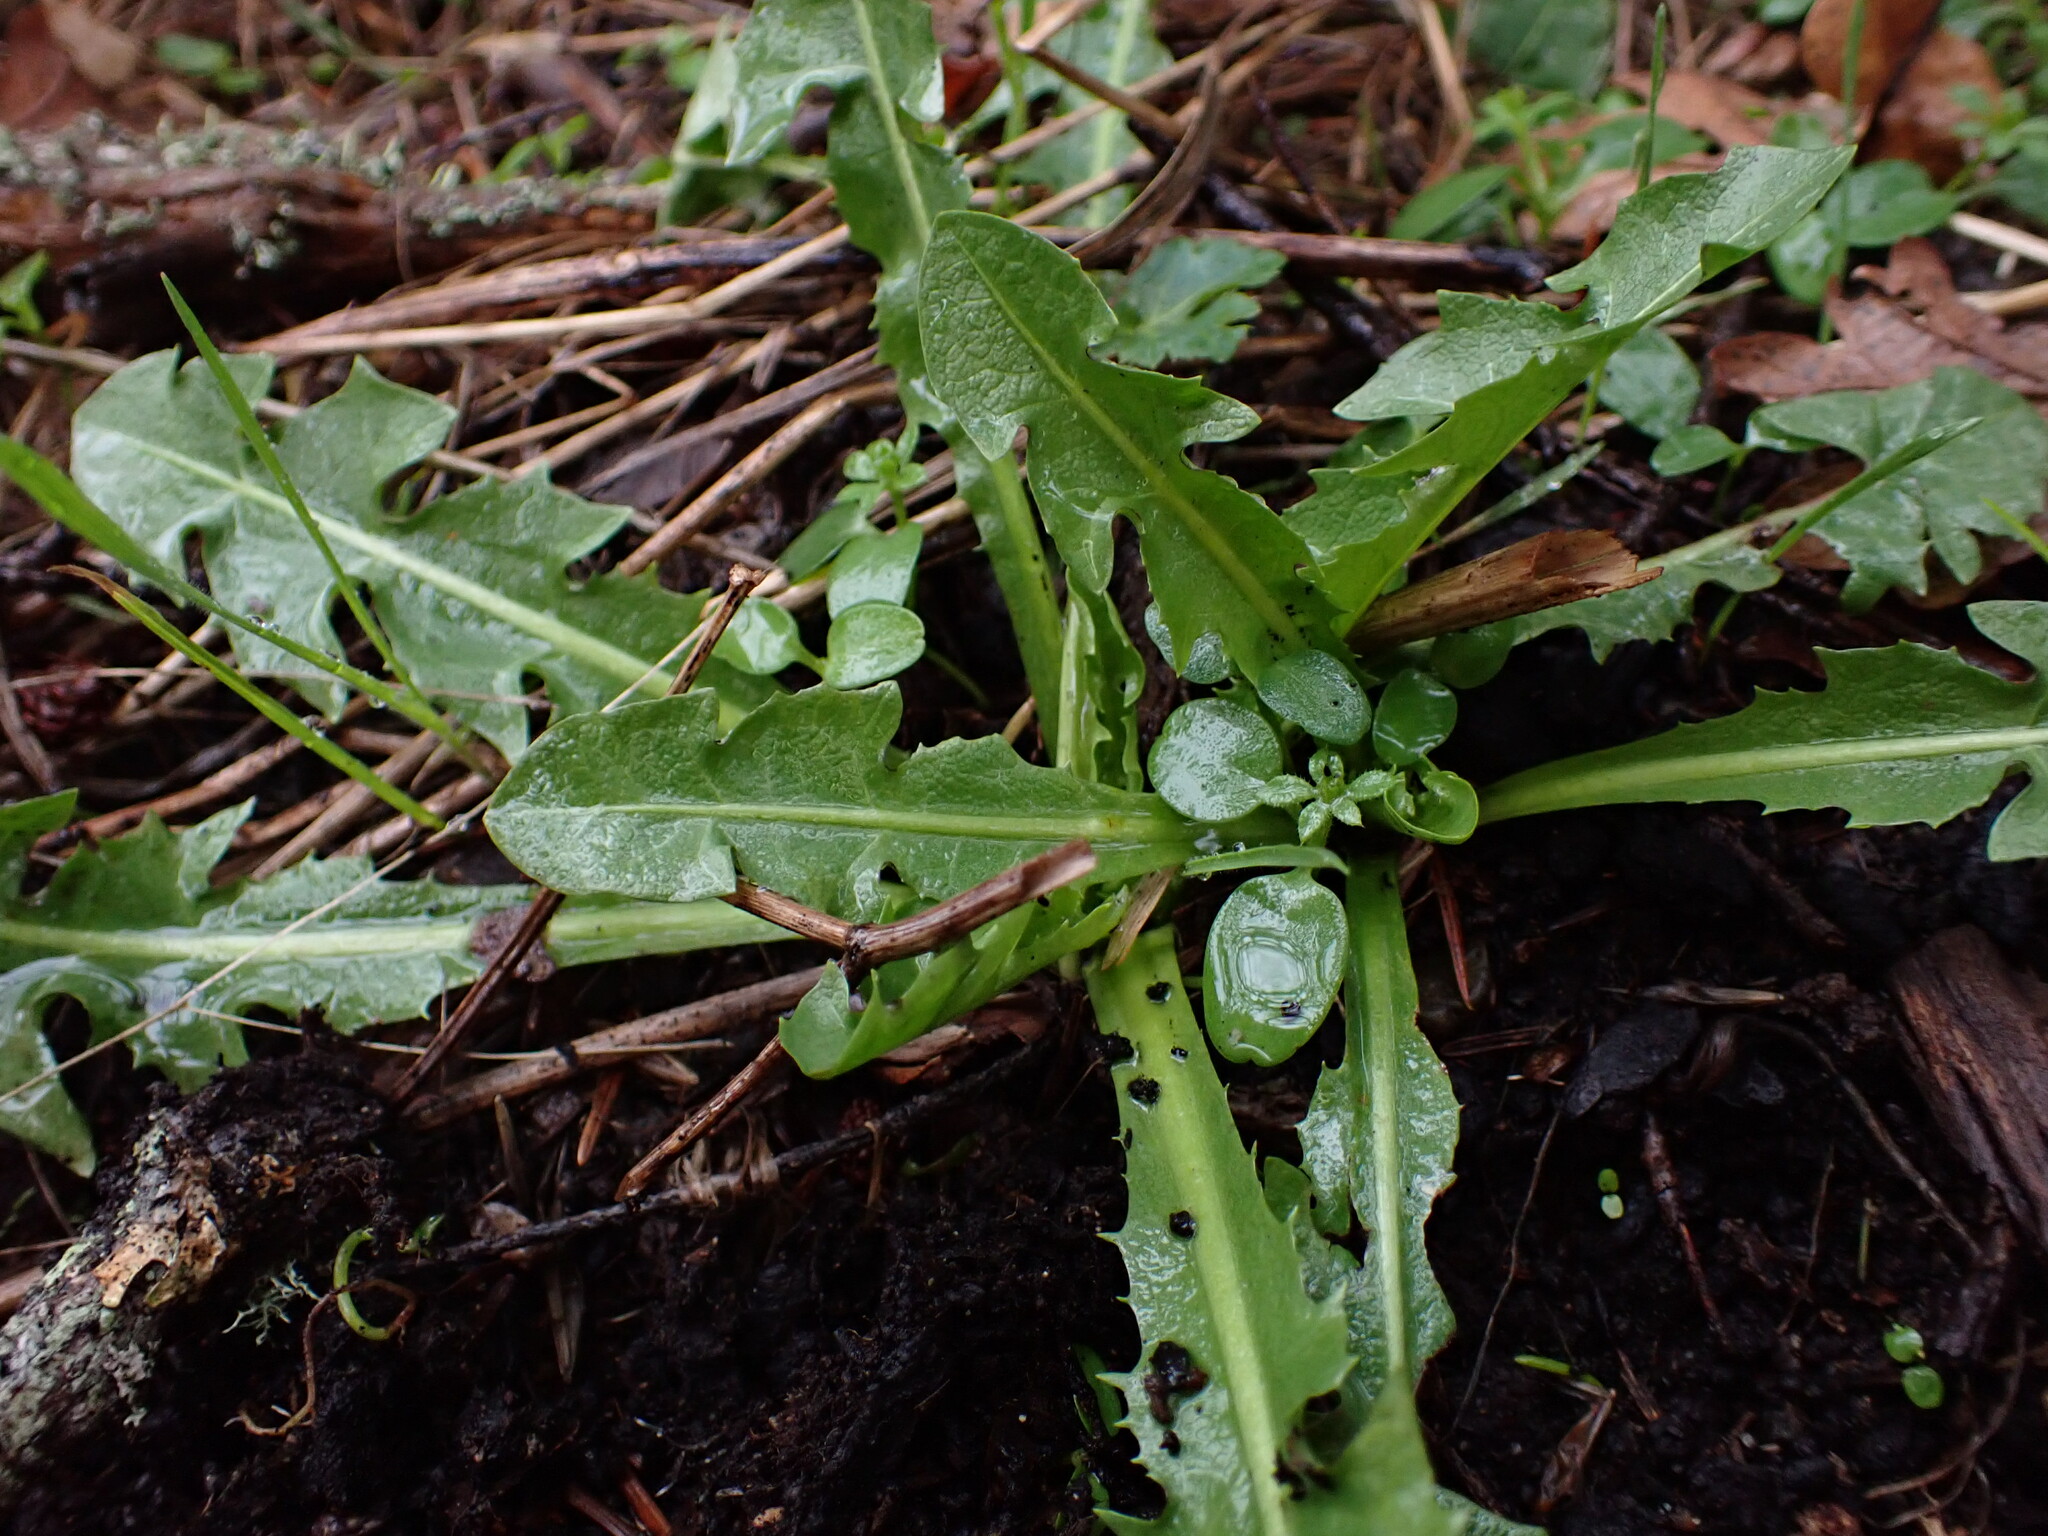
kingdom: Plantae
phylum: Tracheophyta
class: Magnoliopsida
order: Asterales
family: Asteraceae
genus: Taraxacum
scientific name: Taraxacum officinale
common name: Common dandelion
